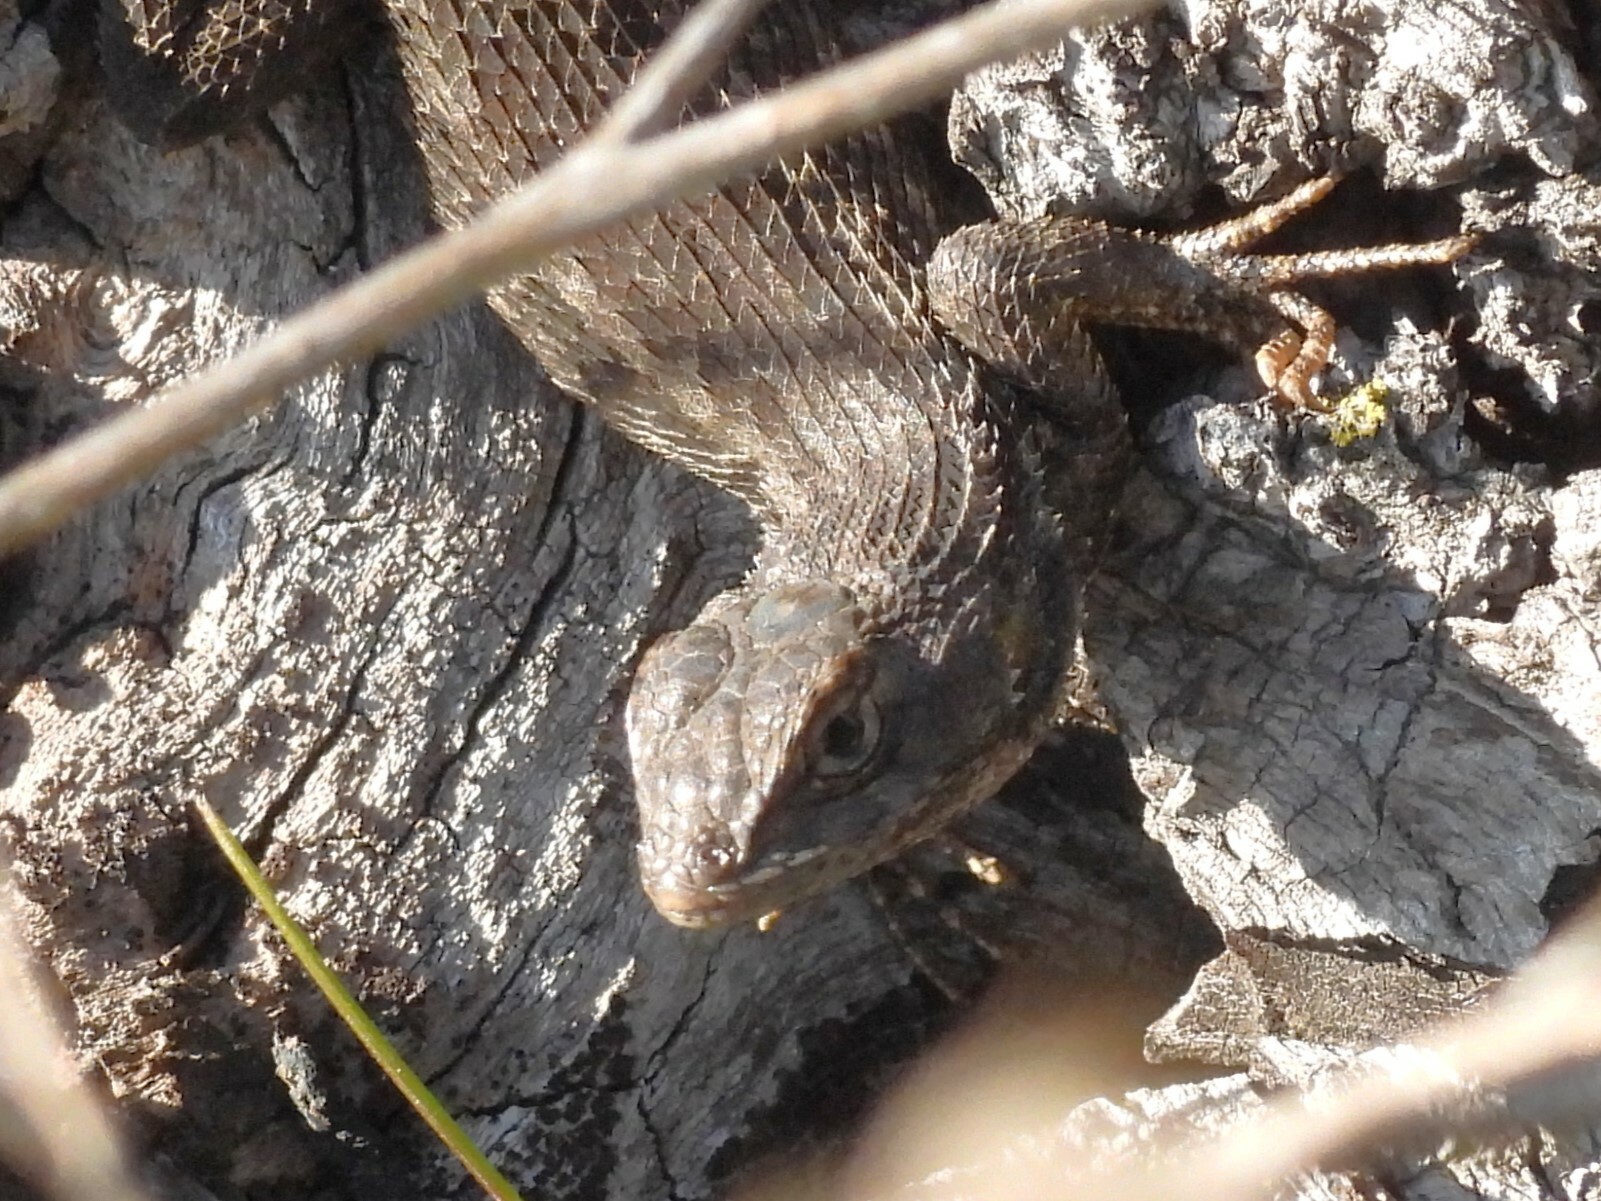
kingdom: Animalia
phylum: Chordata
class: Squamata
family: Phrynosomatidae
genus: Sceloporus
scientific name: Sceloporus occidentalis
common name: Western fence lizard
